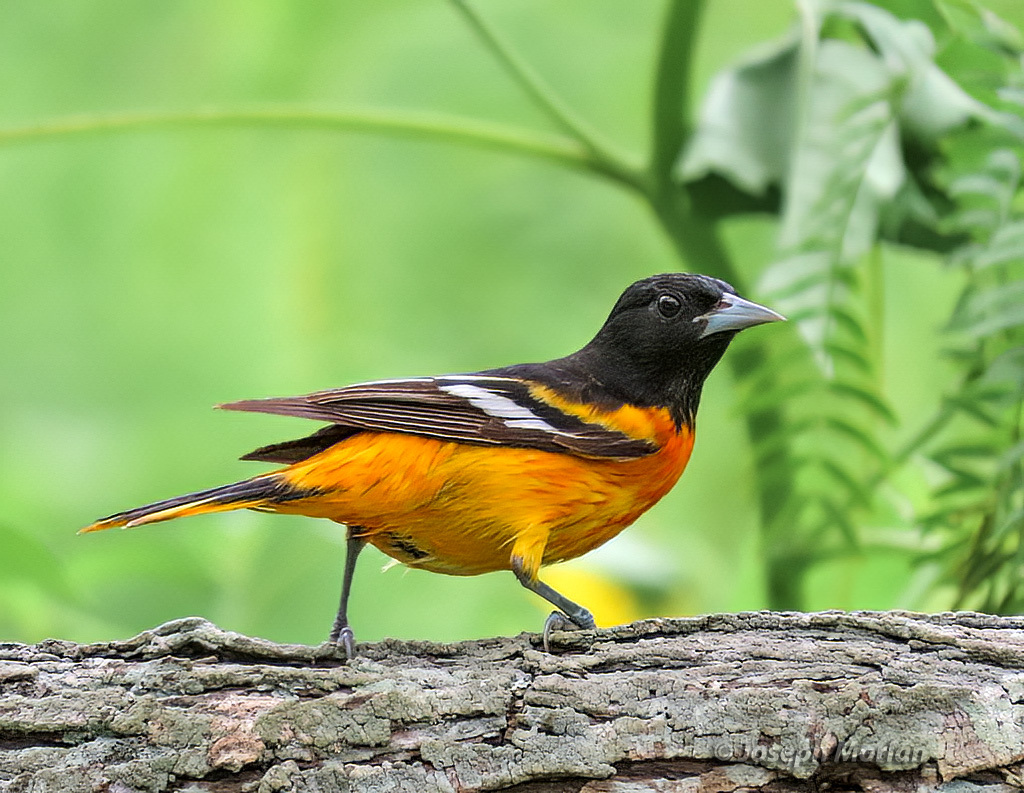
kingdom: Animalia
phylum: Chordata
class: Aves
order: Passeriformes
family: Icteridae
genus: Icterus
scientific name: Icterus galbula
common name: Baltimore oriole
